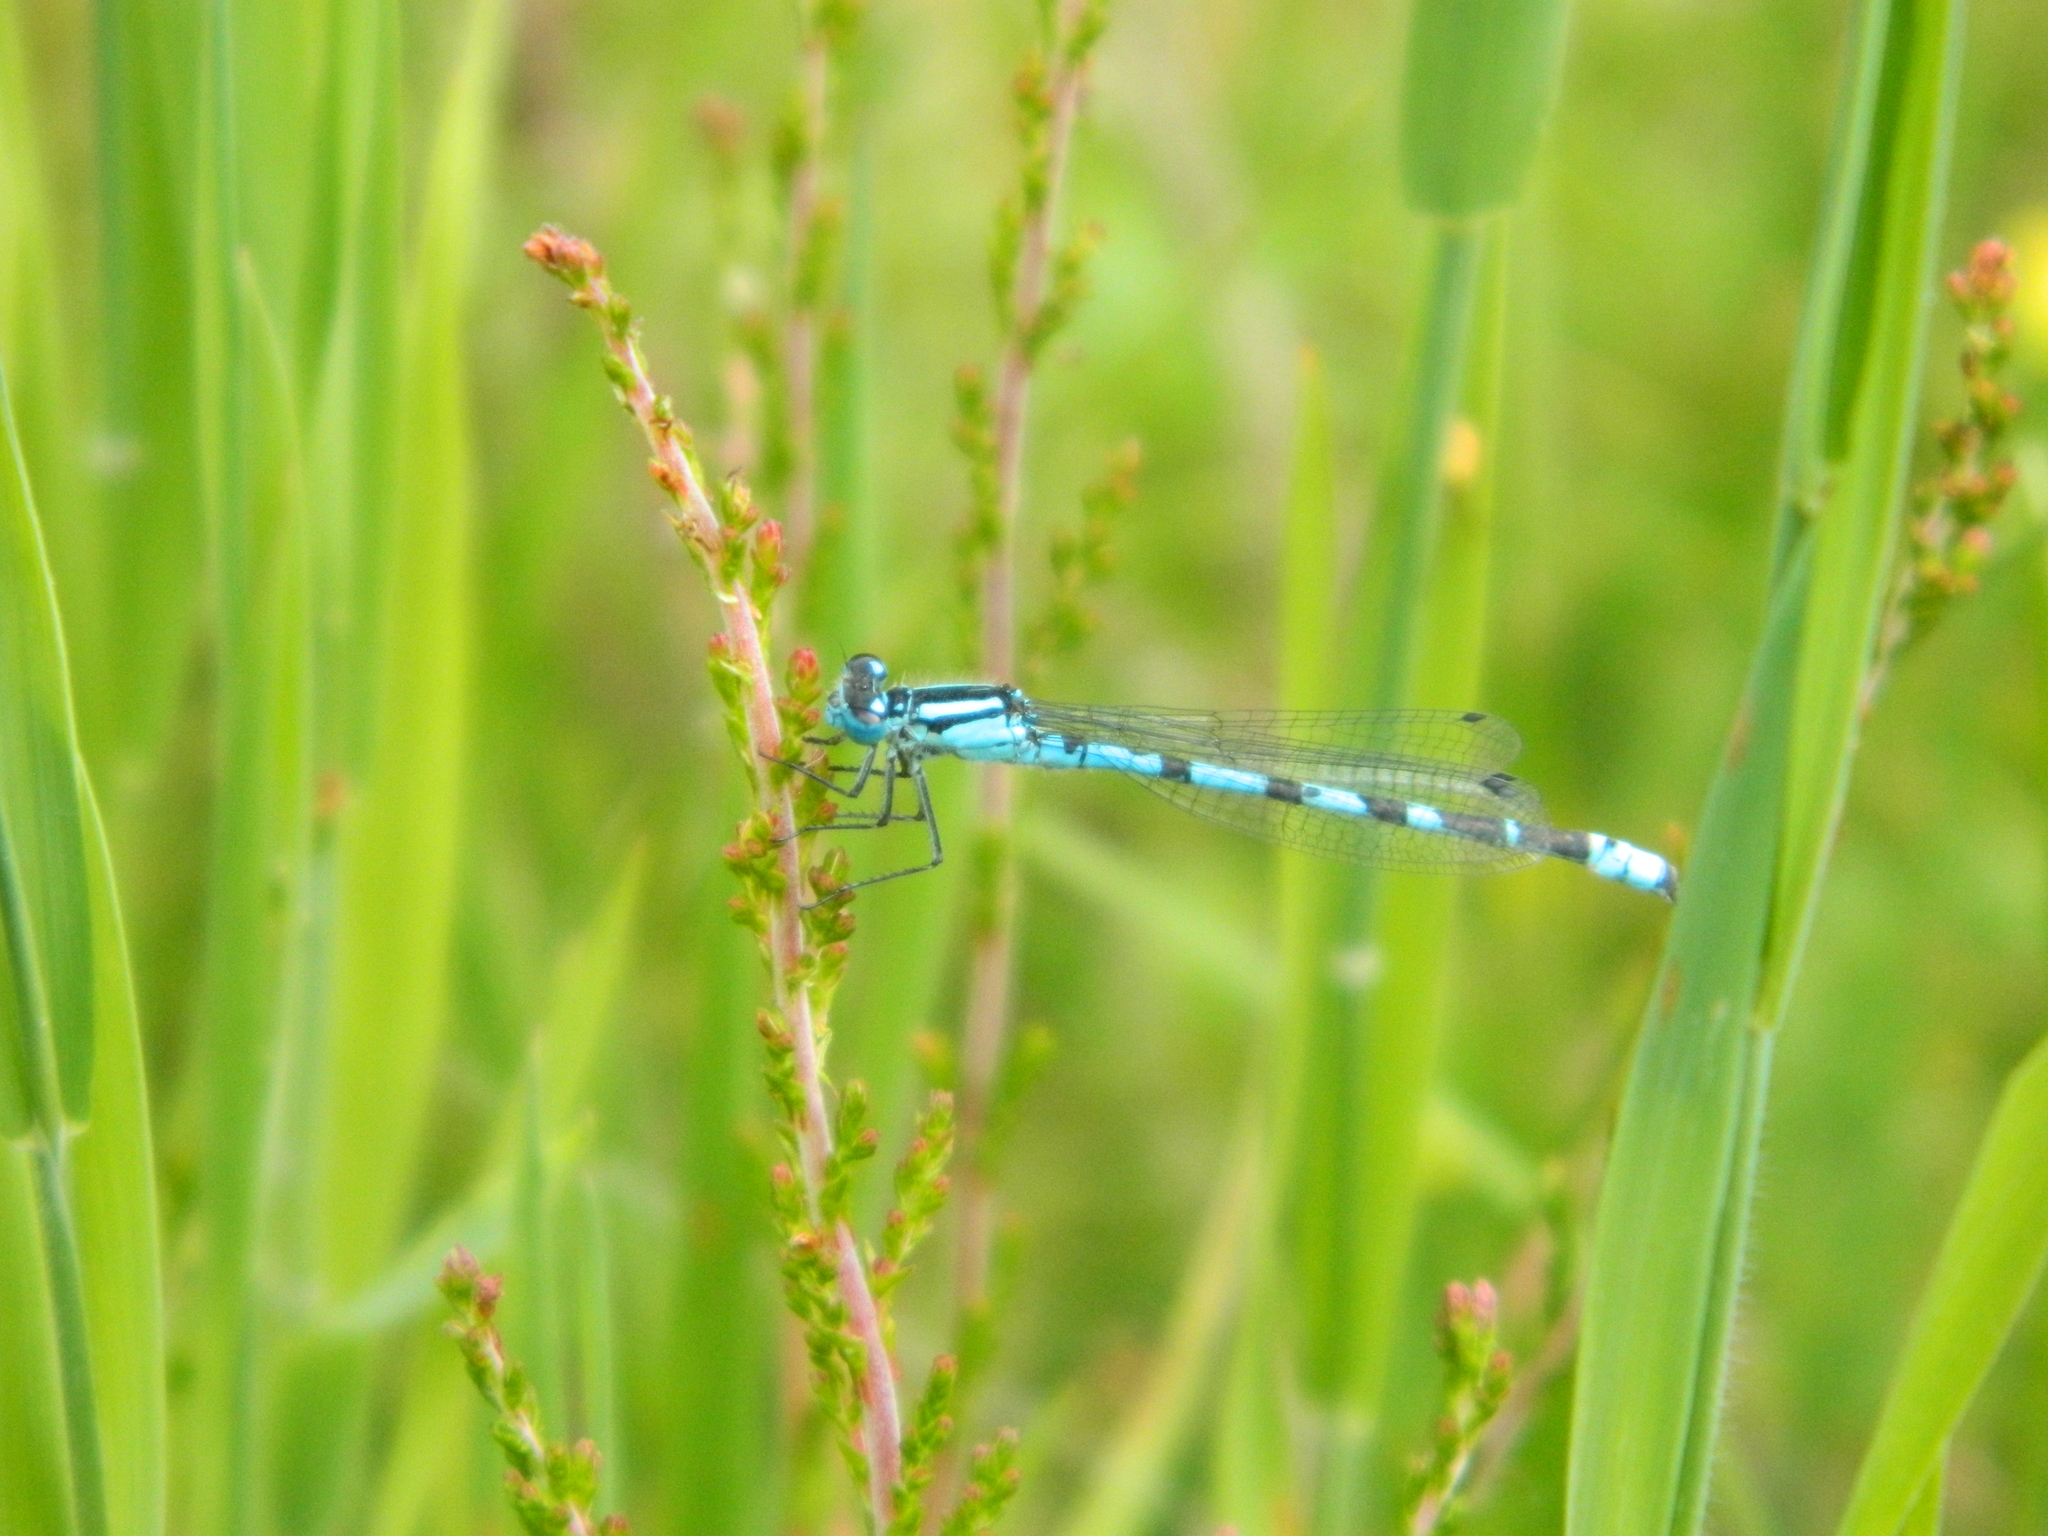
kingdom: Animalia
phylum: Arthropoda
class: Insecta
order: Odonata
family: Coenagrionidae
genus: Enallagma
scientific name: Enallagma cyathigerum
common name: Common blue damselfly
